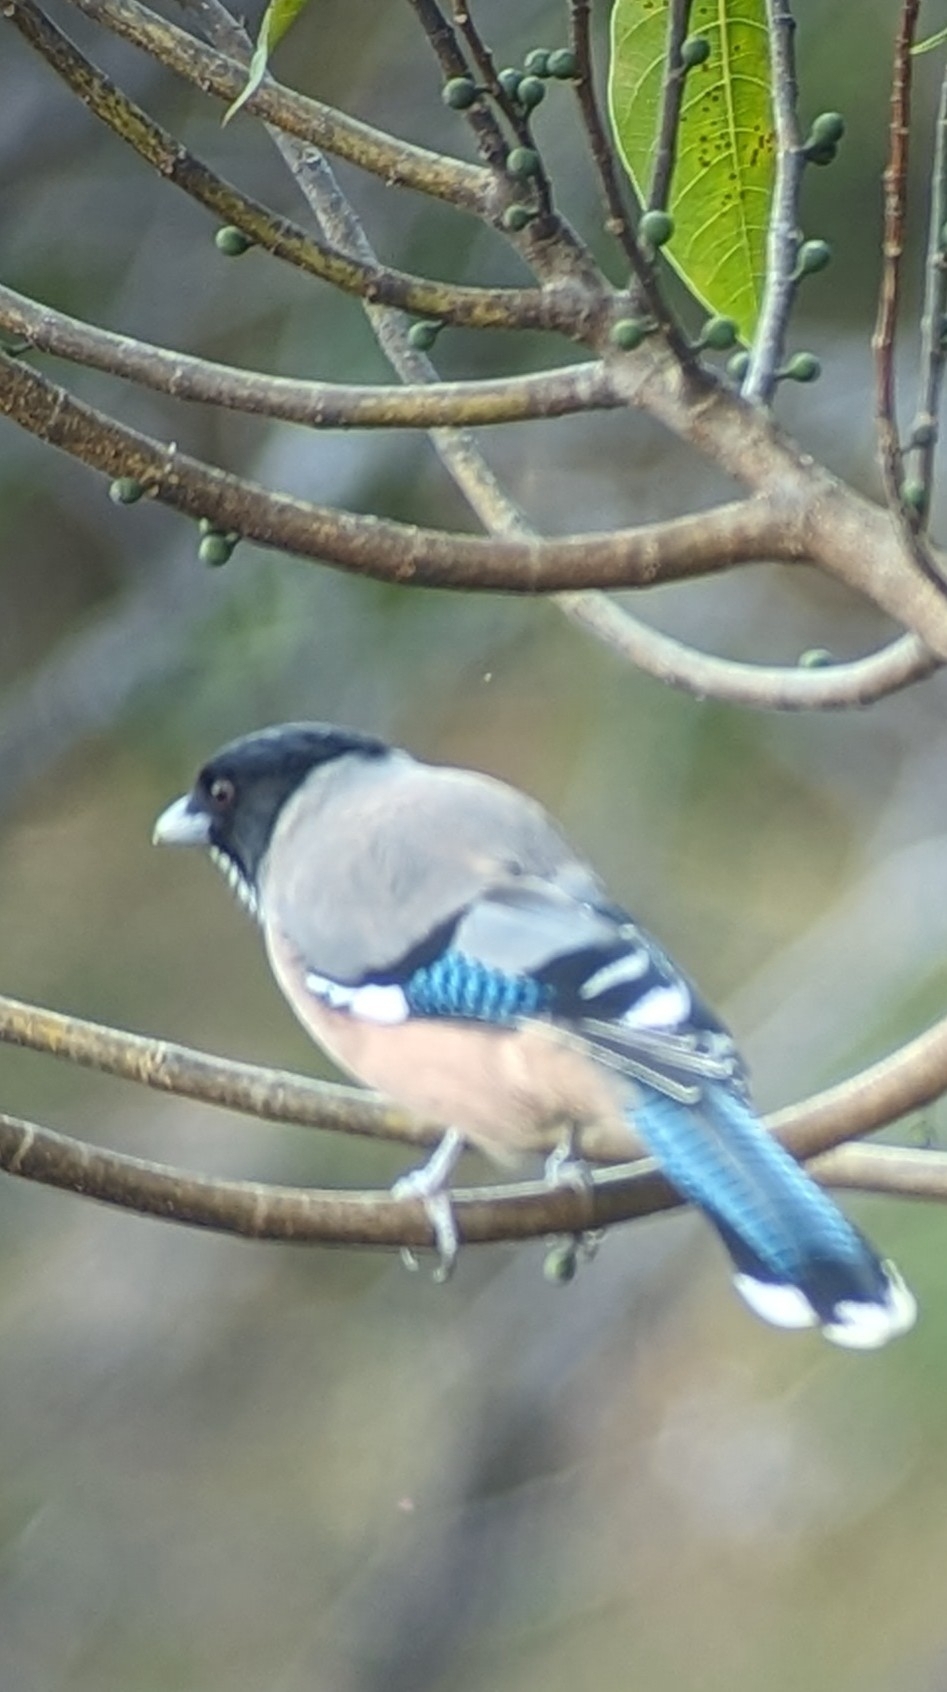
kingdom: Animalia
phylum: Chordata
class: Aves
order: Passeriformes
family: Corvidae
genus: Garrulus
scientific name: Garrulus lanceolatus
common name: Black-headed jay
